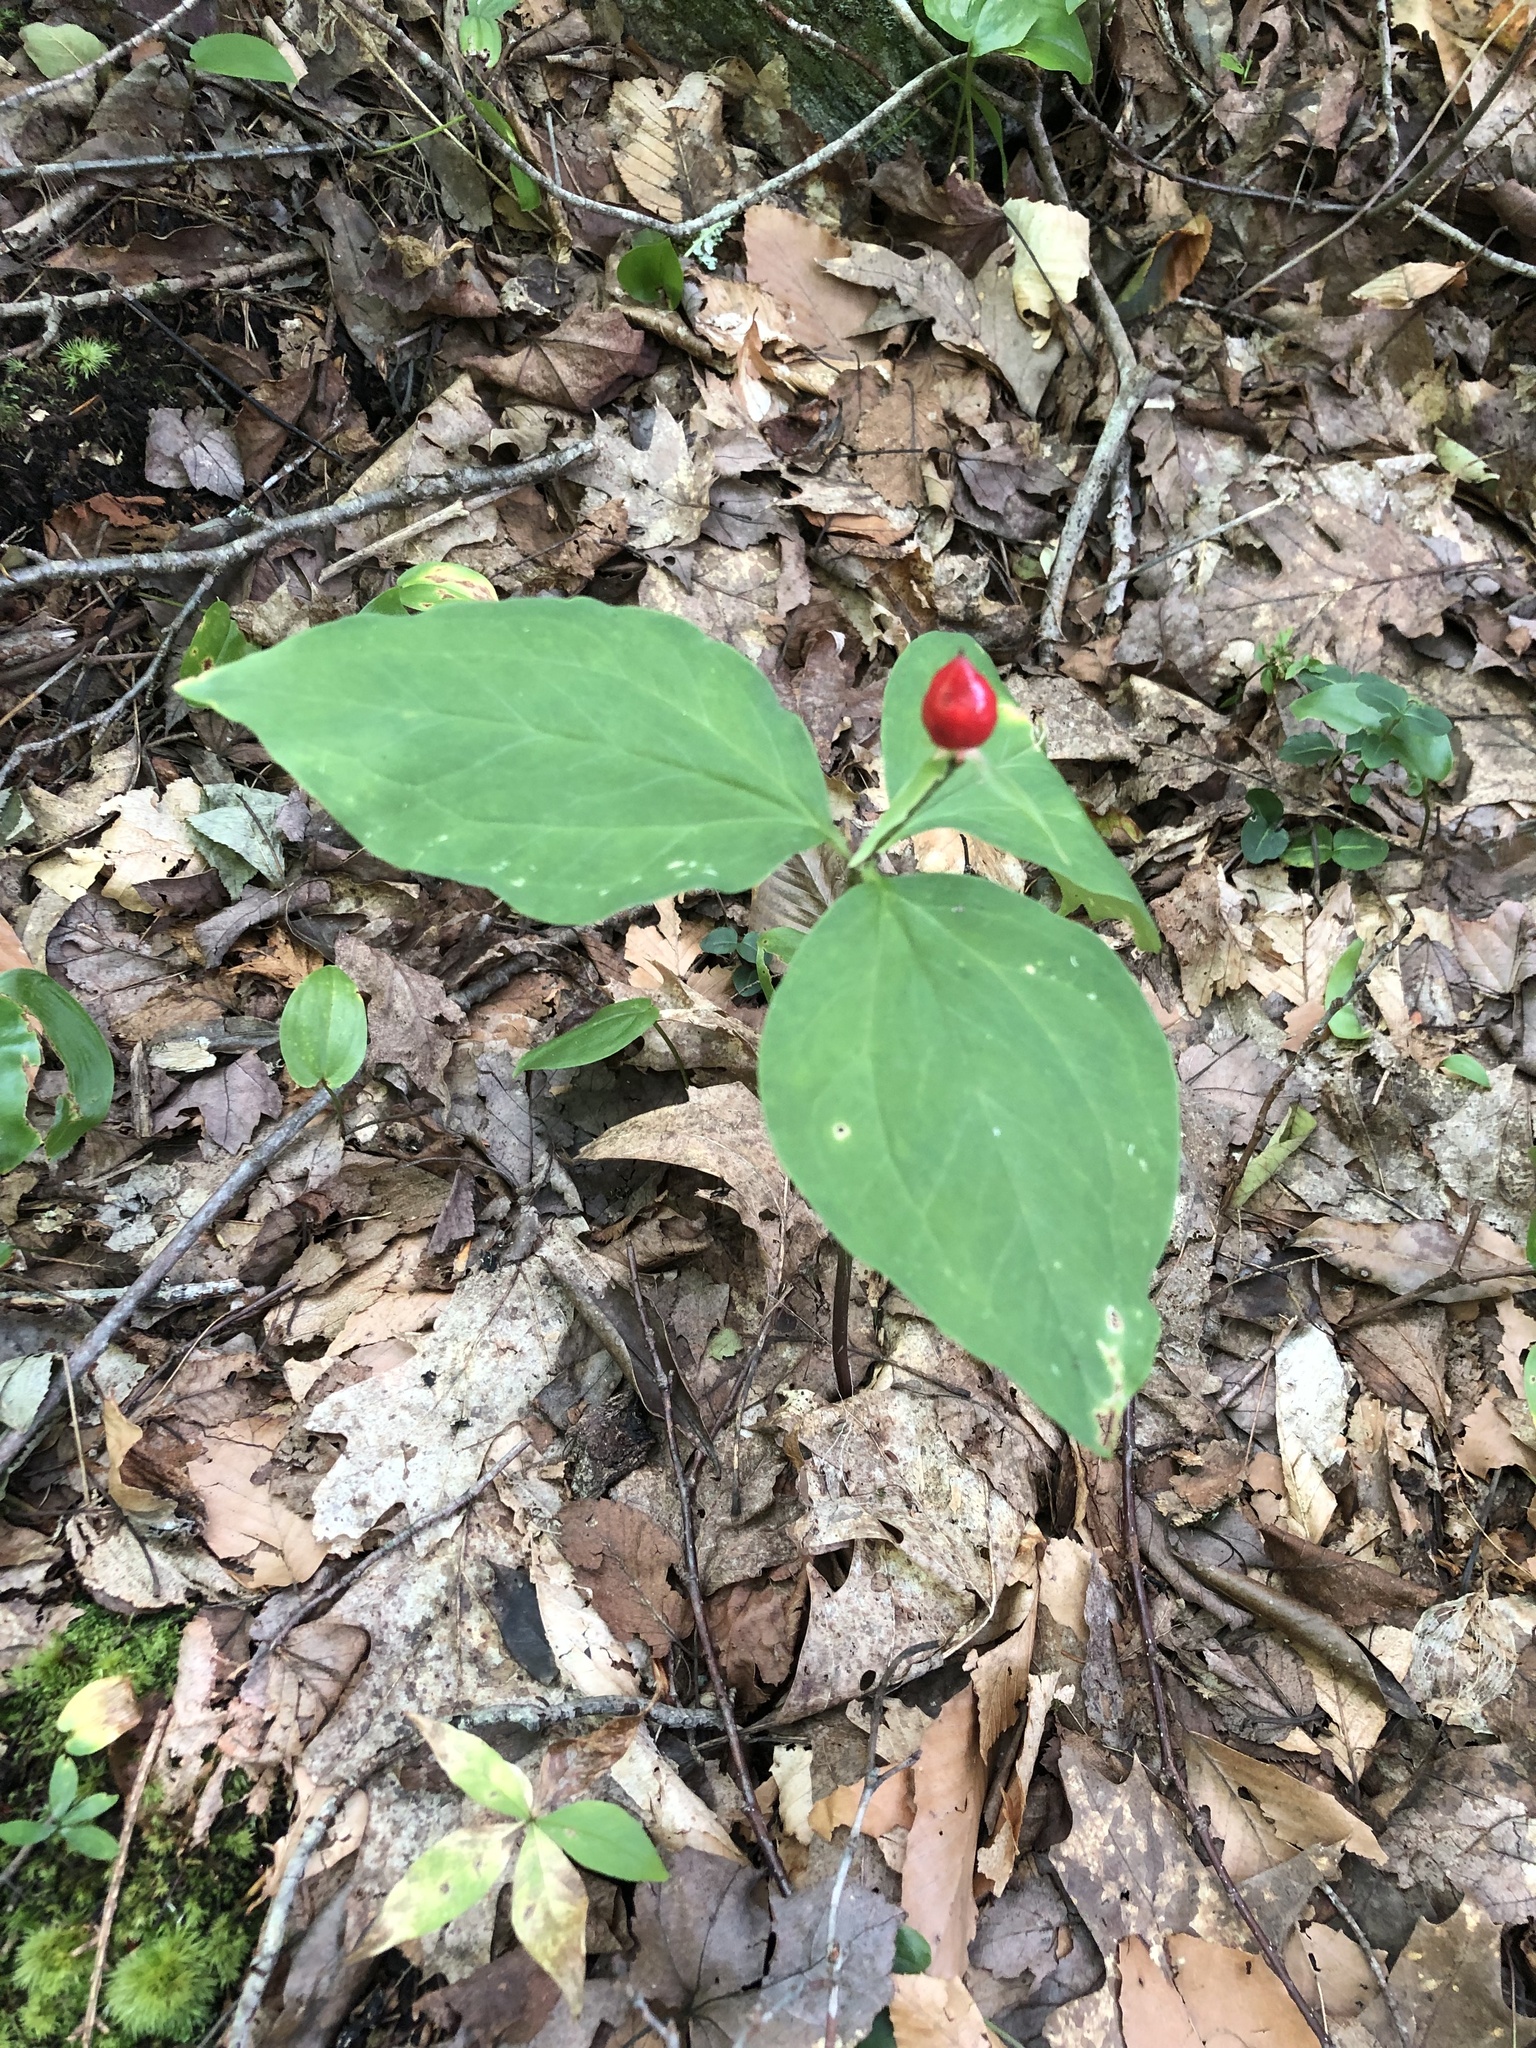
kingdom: Plantae
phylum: Tracheophyta
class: Liliopsida
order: Liliales
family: Melanthiaceae
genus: Trillium
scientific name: Trillium undulatum
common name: Paint trillium
